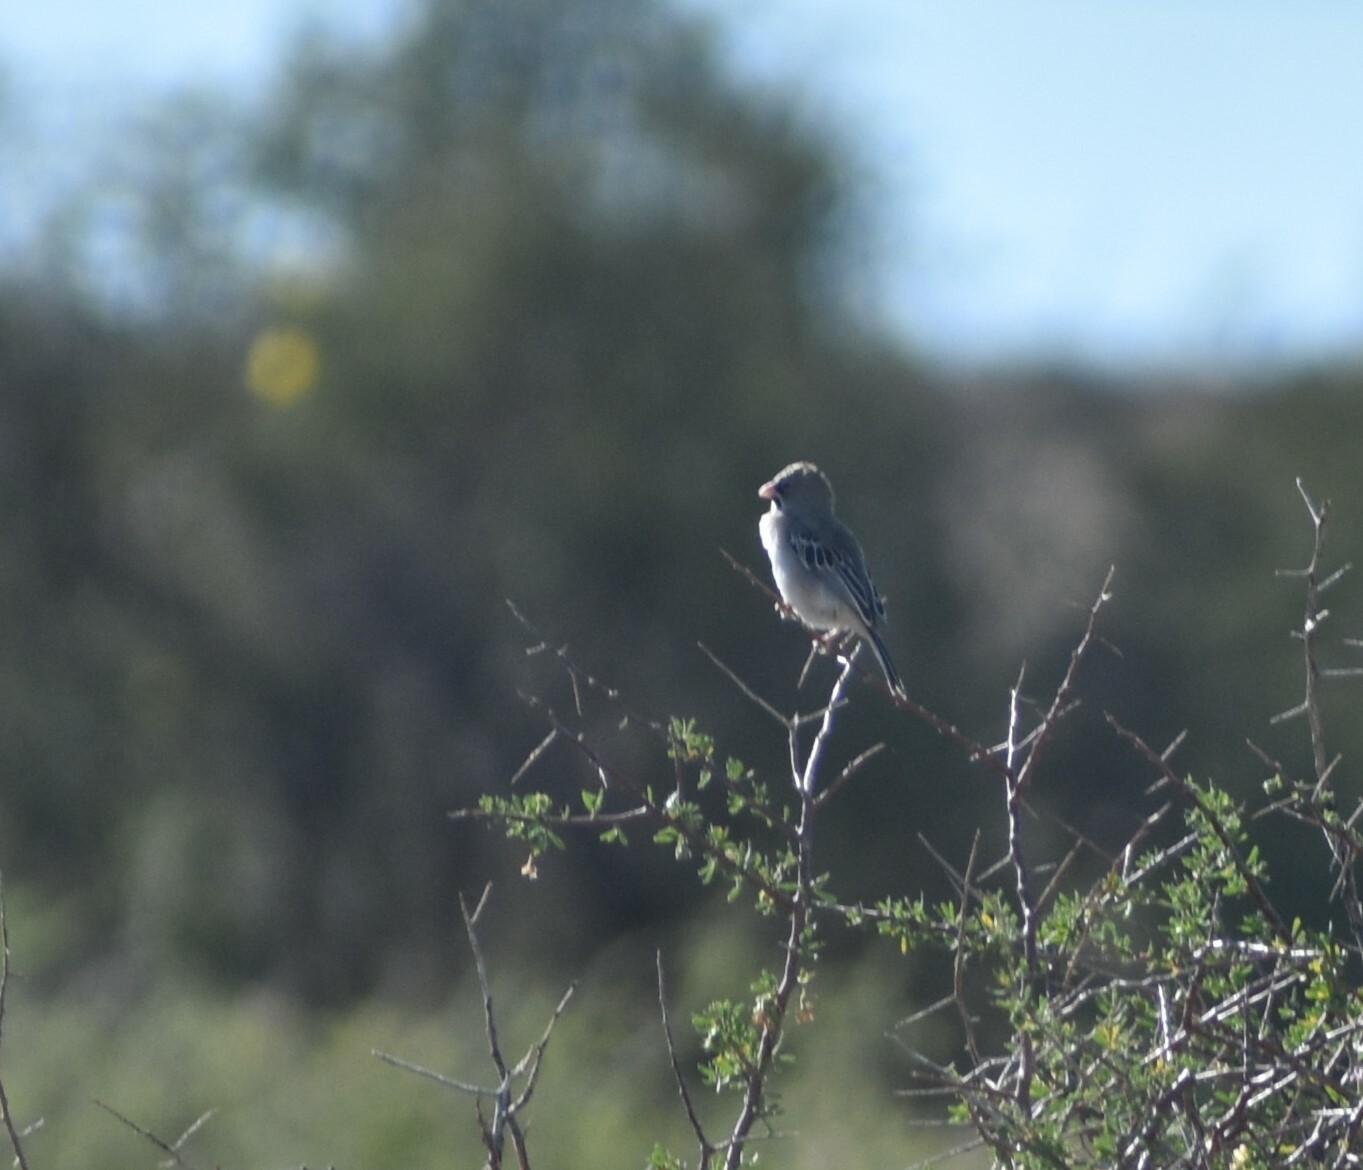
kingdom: Animalia
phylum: Chordata
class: Aves
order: Passeriformes
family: Ploceidae
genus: Sporopipes
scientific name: Sporopipes squamifrons
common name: Scaly-feathered weaver
